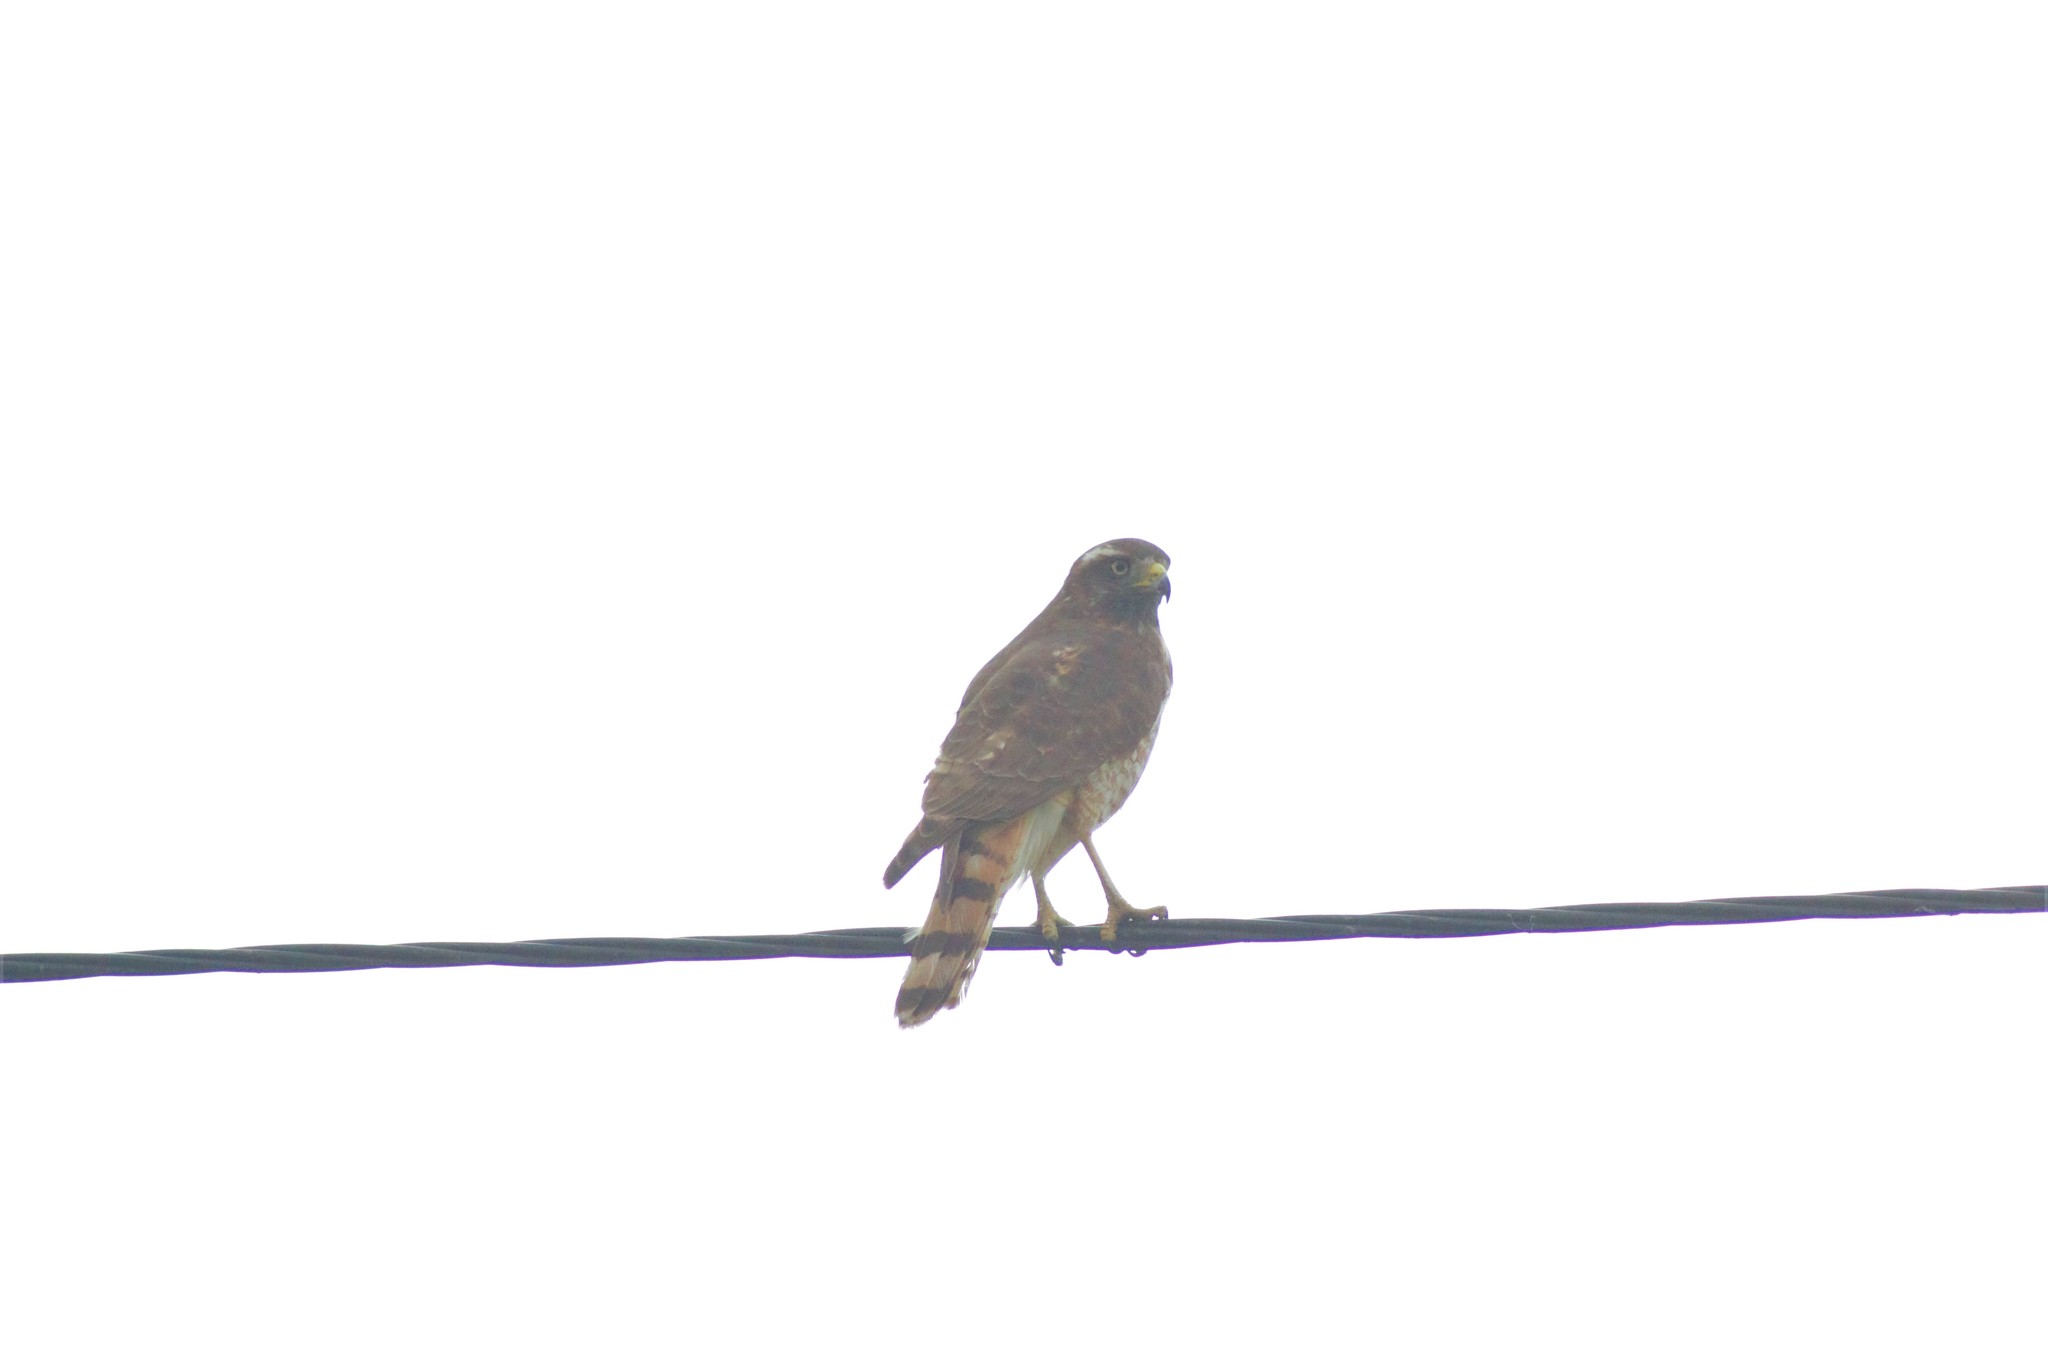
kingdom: Animalia
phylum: Chordata
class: Aves
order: Accipitriformes
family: Accipitridae
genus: Rupornis
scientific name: Rupornis magnirostris
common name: Roadside hawk
